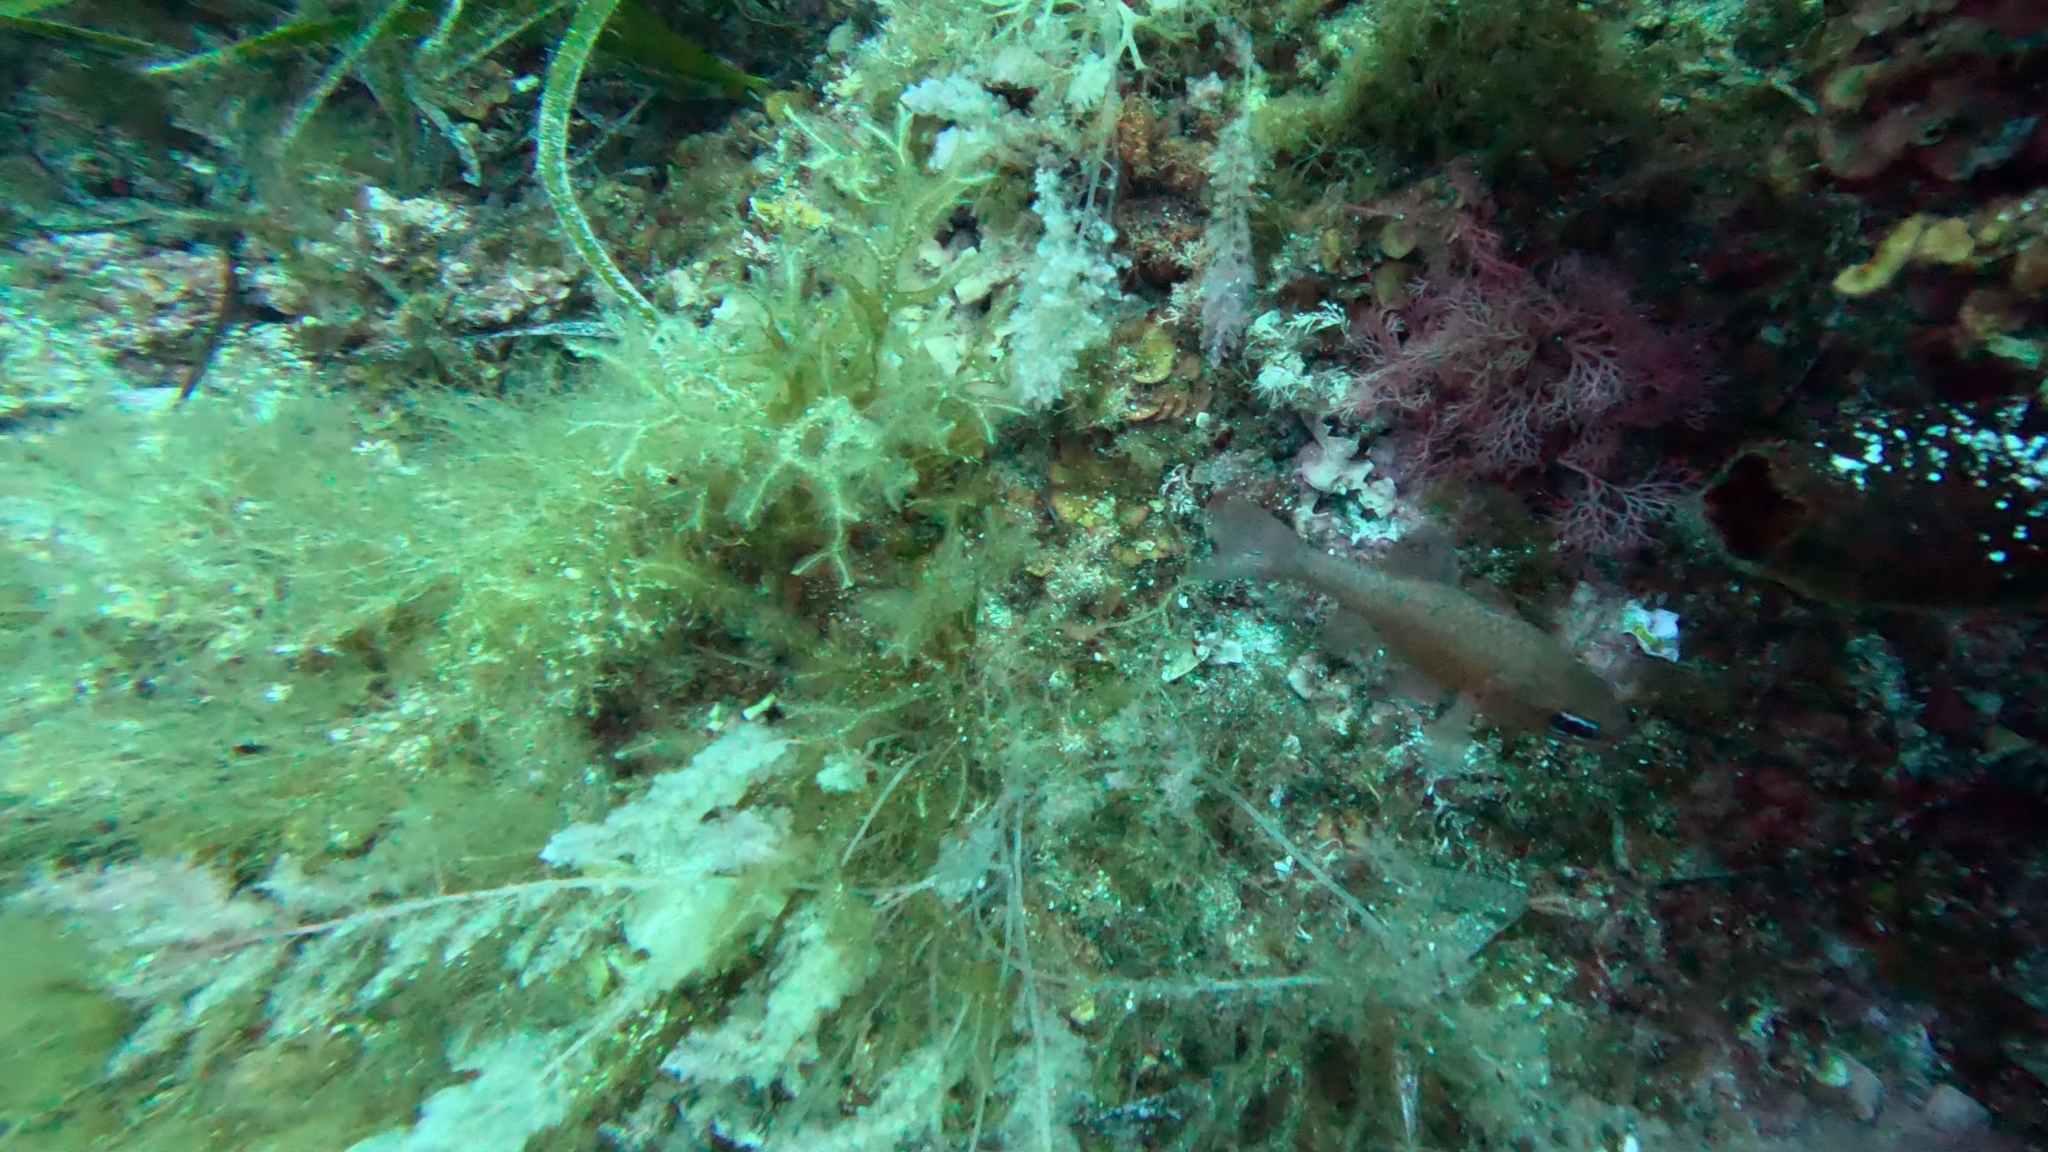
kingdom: Animalia
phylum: Chordata
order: Perciformes
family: Apogonidae
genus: Apogon
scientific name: Apogon imberbis
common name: Cardinal fish
